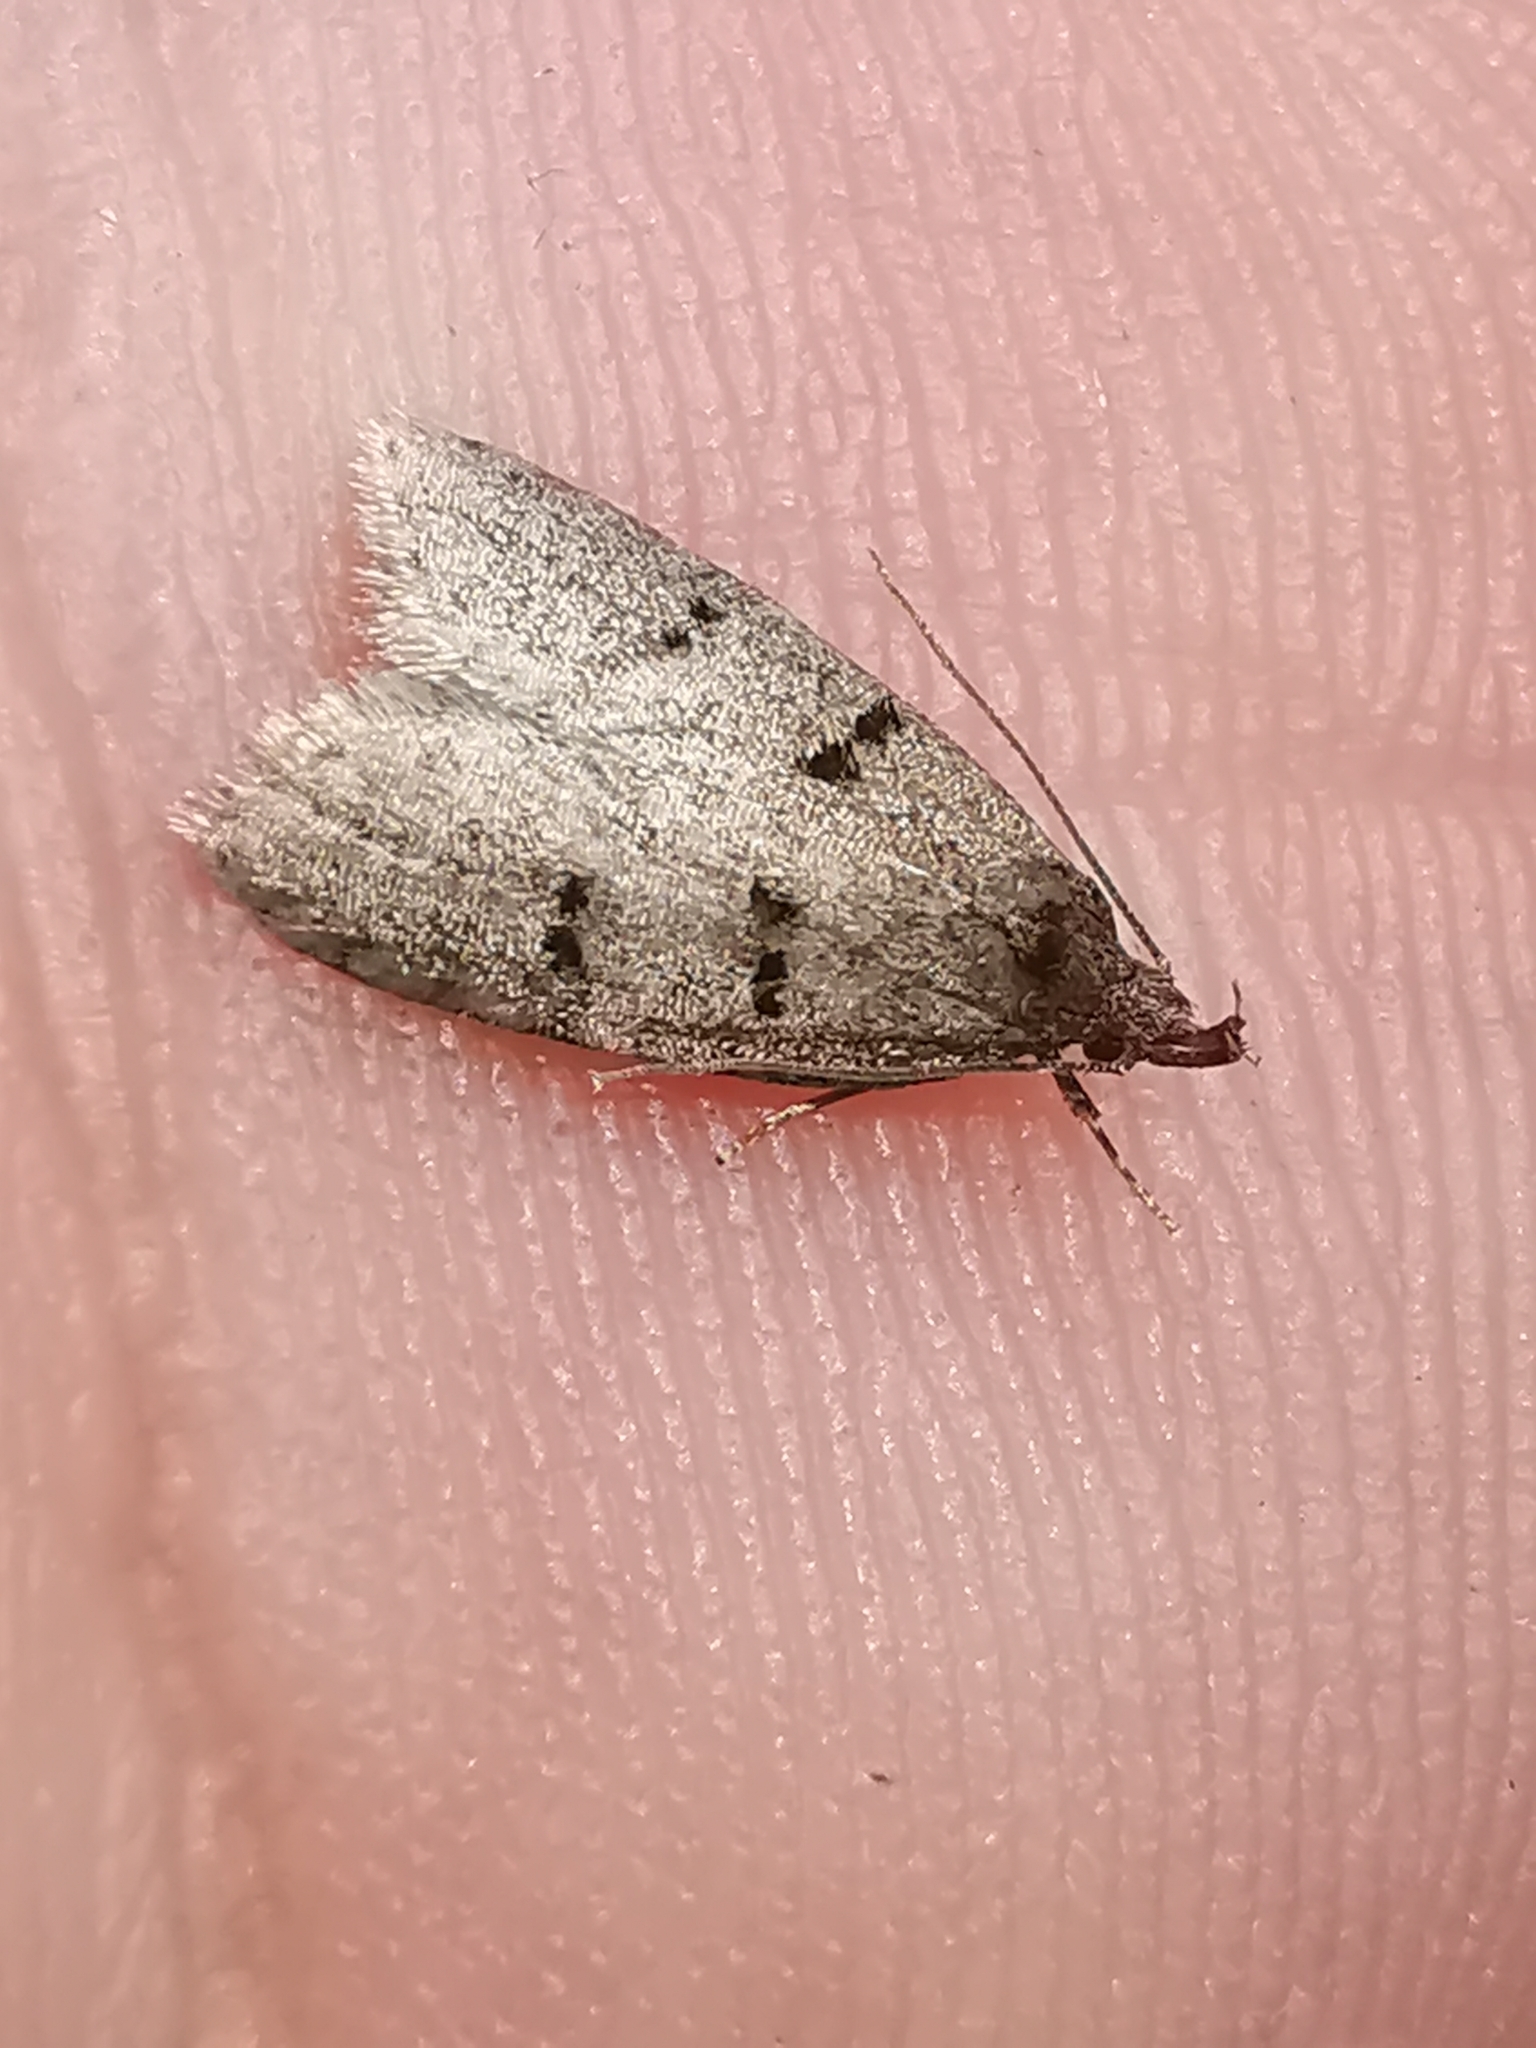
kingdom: Animalia
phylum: Arthropoda
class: Insecta
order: Lepidoptera
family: Oecophoridae
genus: Luquetia
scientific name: Luquetia lobella
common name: Sloe flat-body
